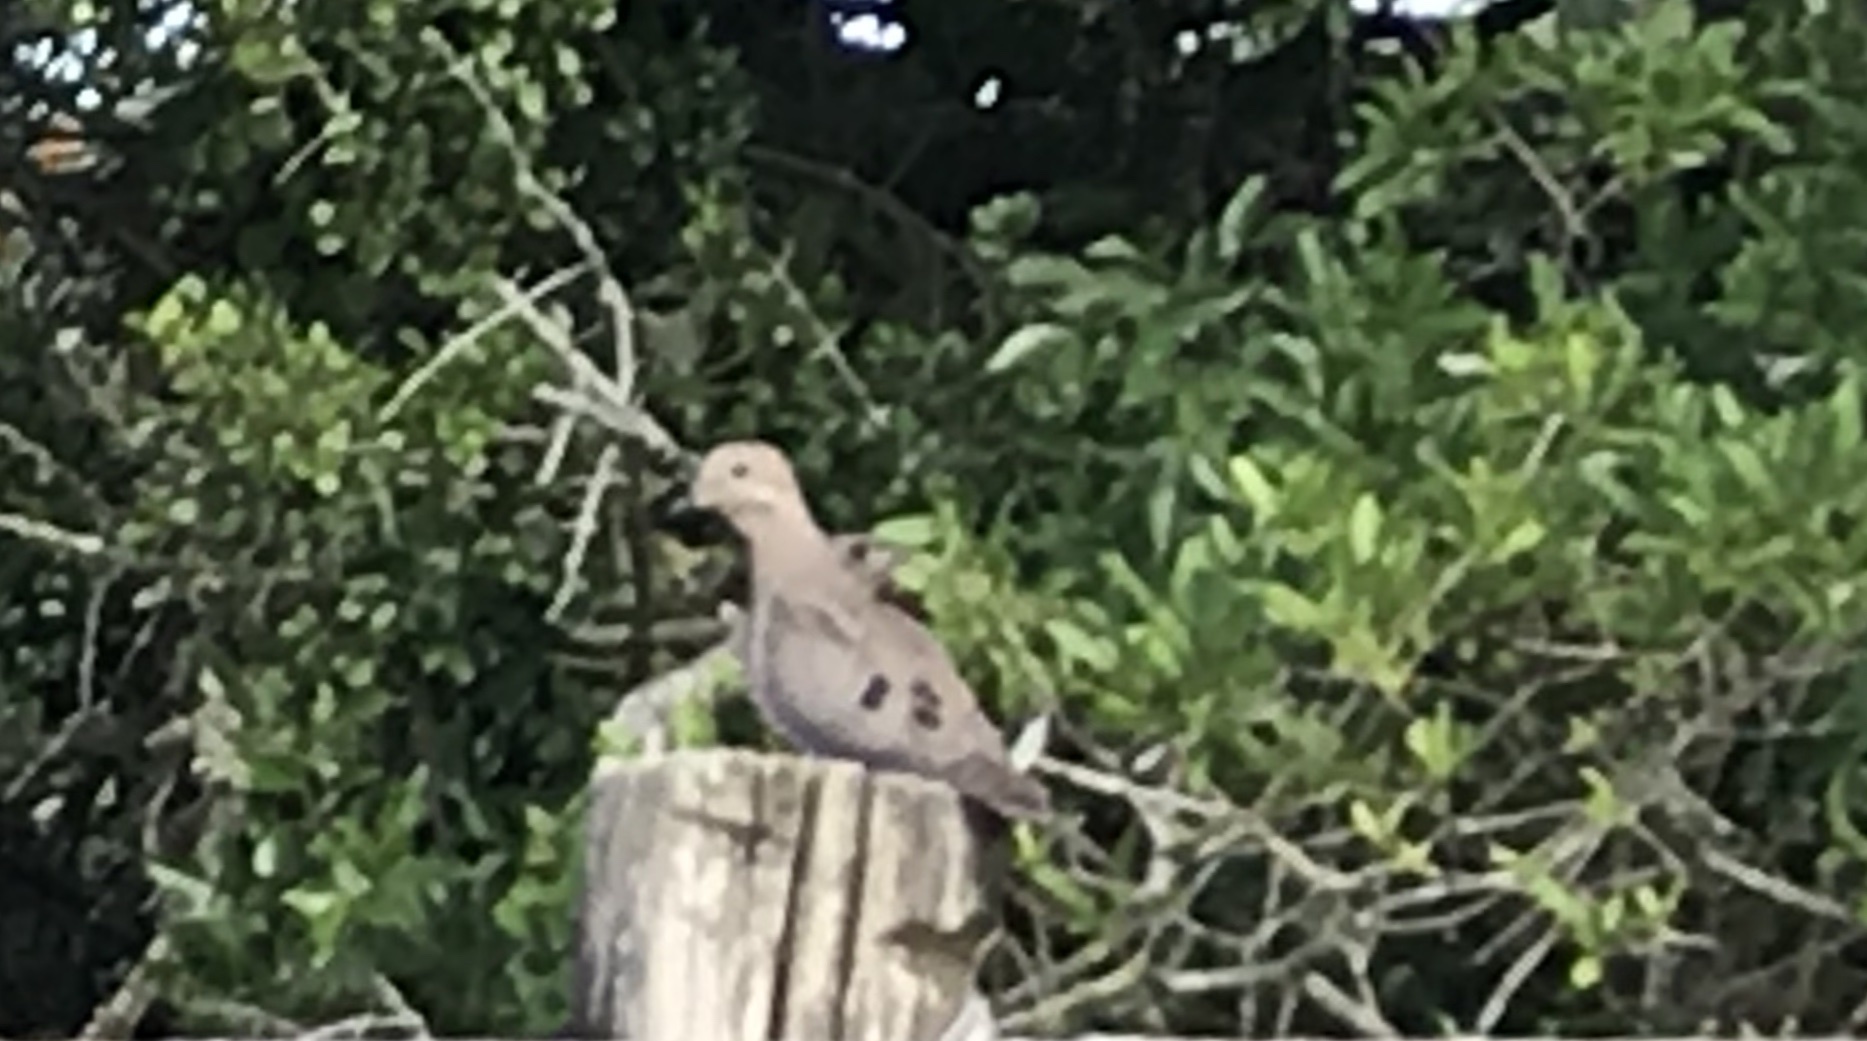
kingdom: Animalia
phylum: Chordata
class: Aves
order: Columbiformes
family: Columbidae
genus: Zenaida
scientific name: Zenaida auriculata
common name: Eared dove
